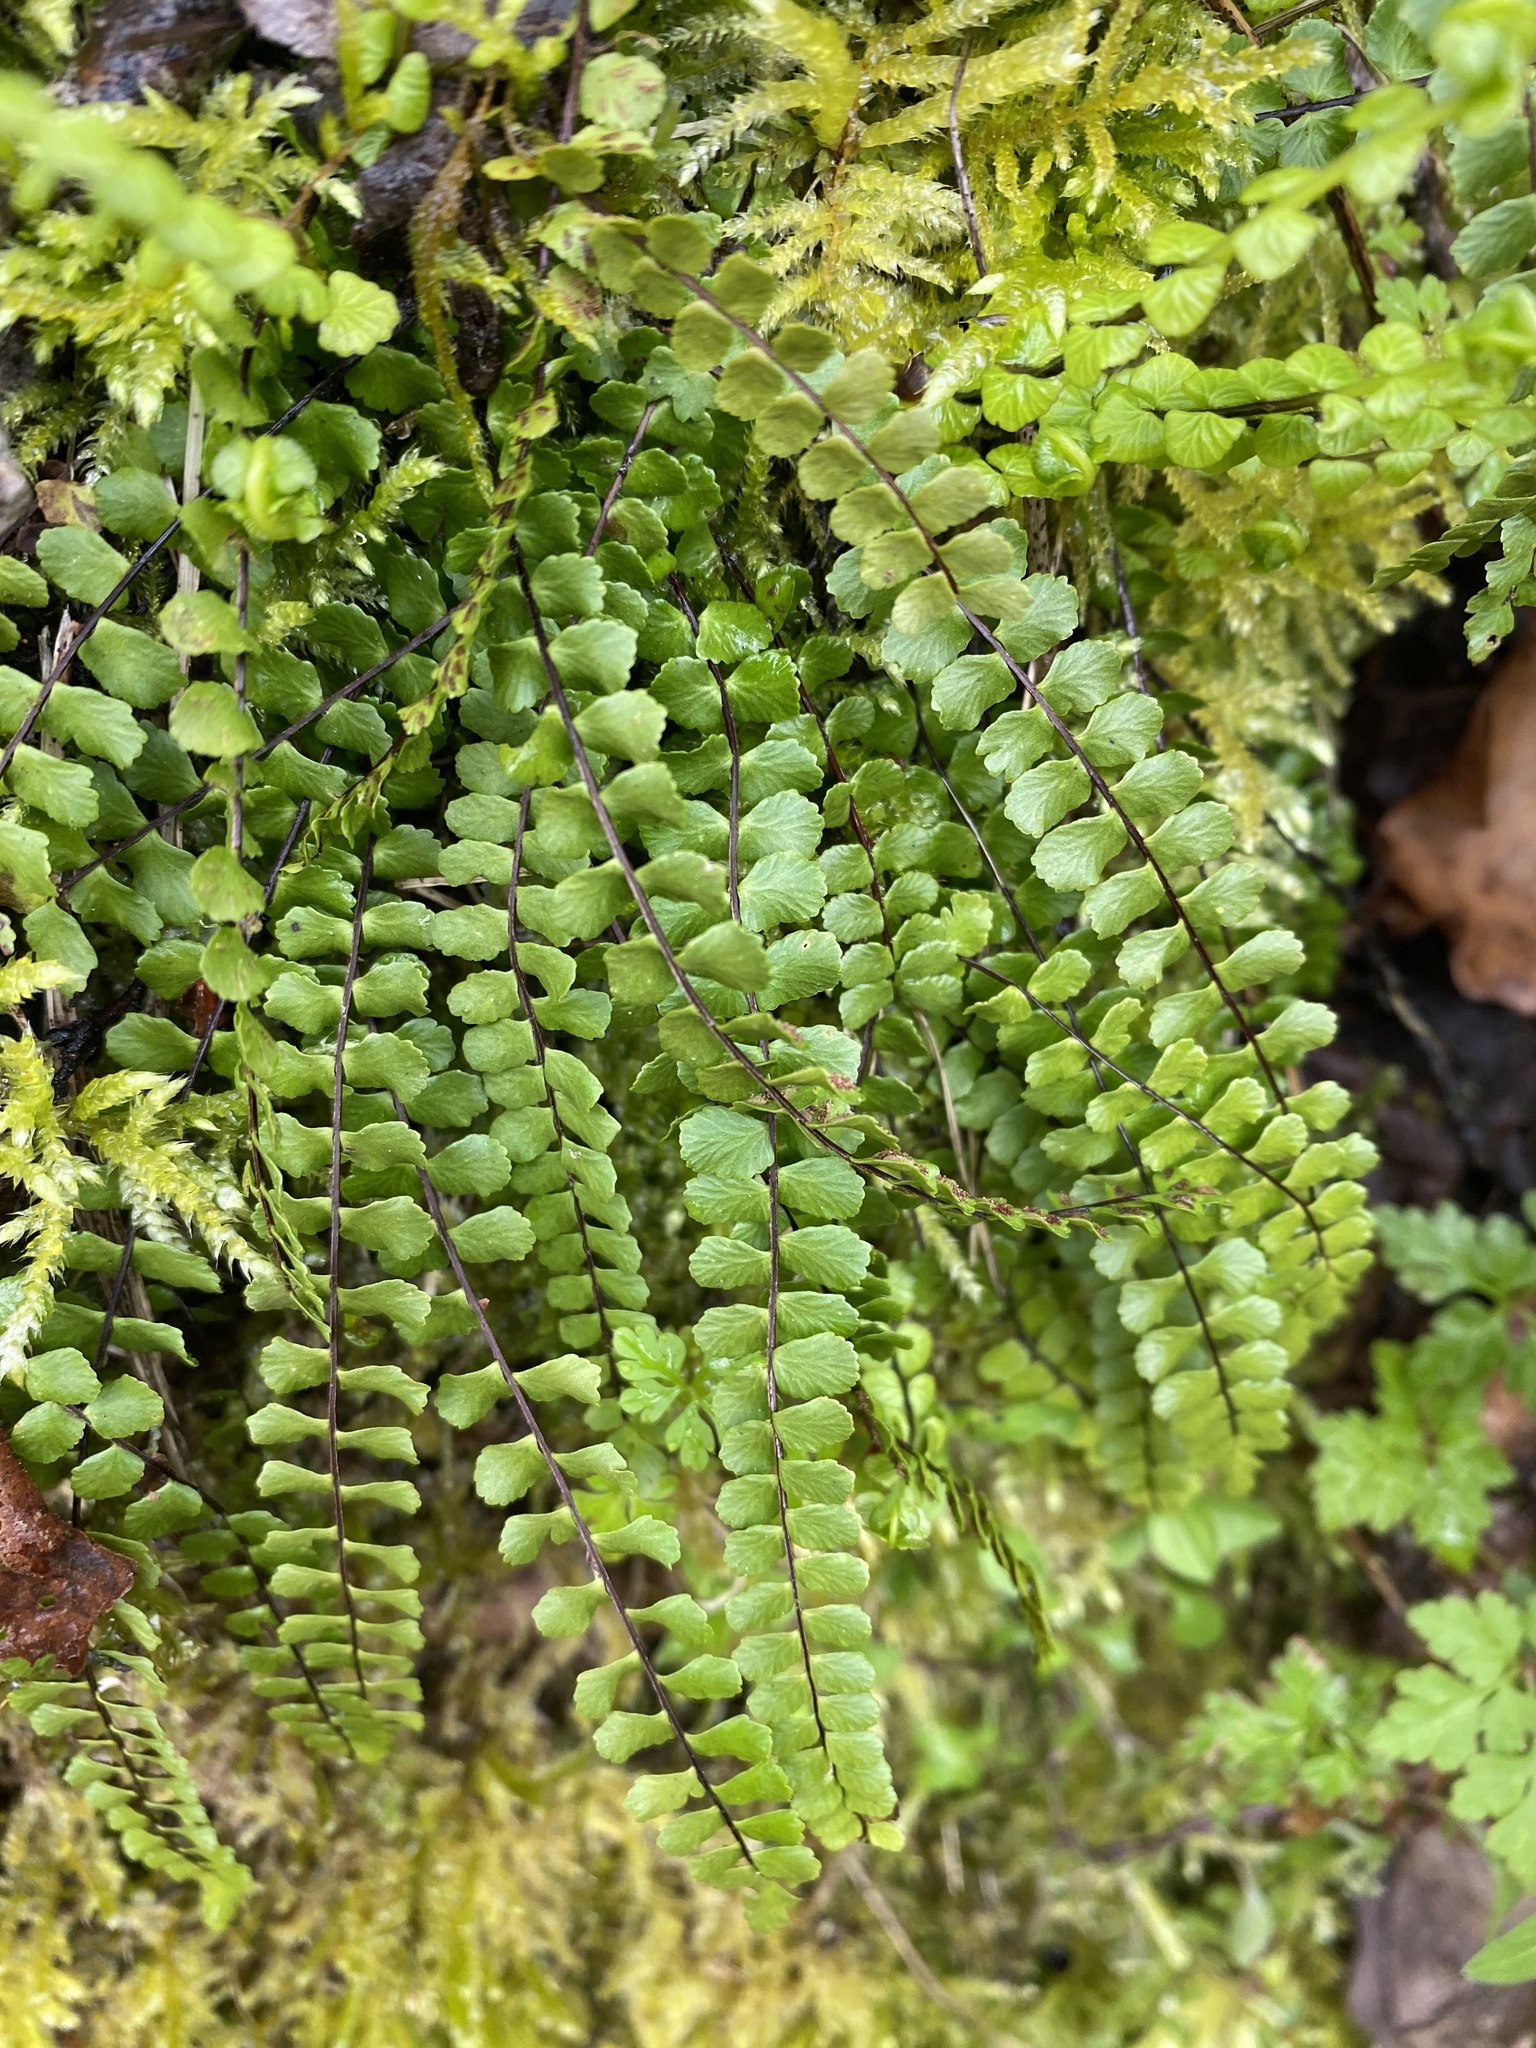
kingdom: Plantae
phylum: Tracheophyta
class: Polypodiopsida
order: Polypodiales
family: Aspleniaceae
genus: Asplenium
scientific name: Asplenium trichomanes
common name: Maidenhair spleenwort
